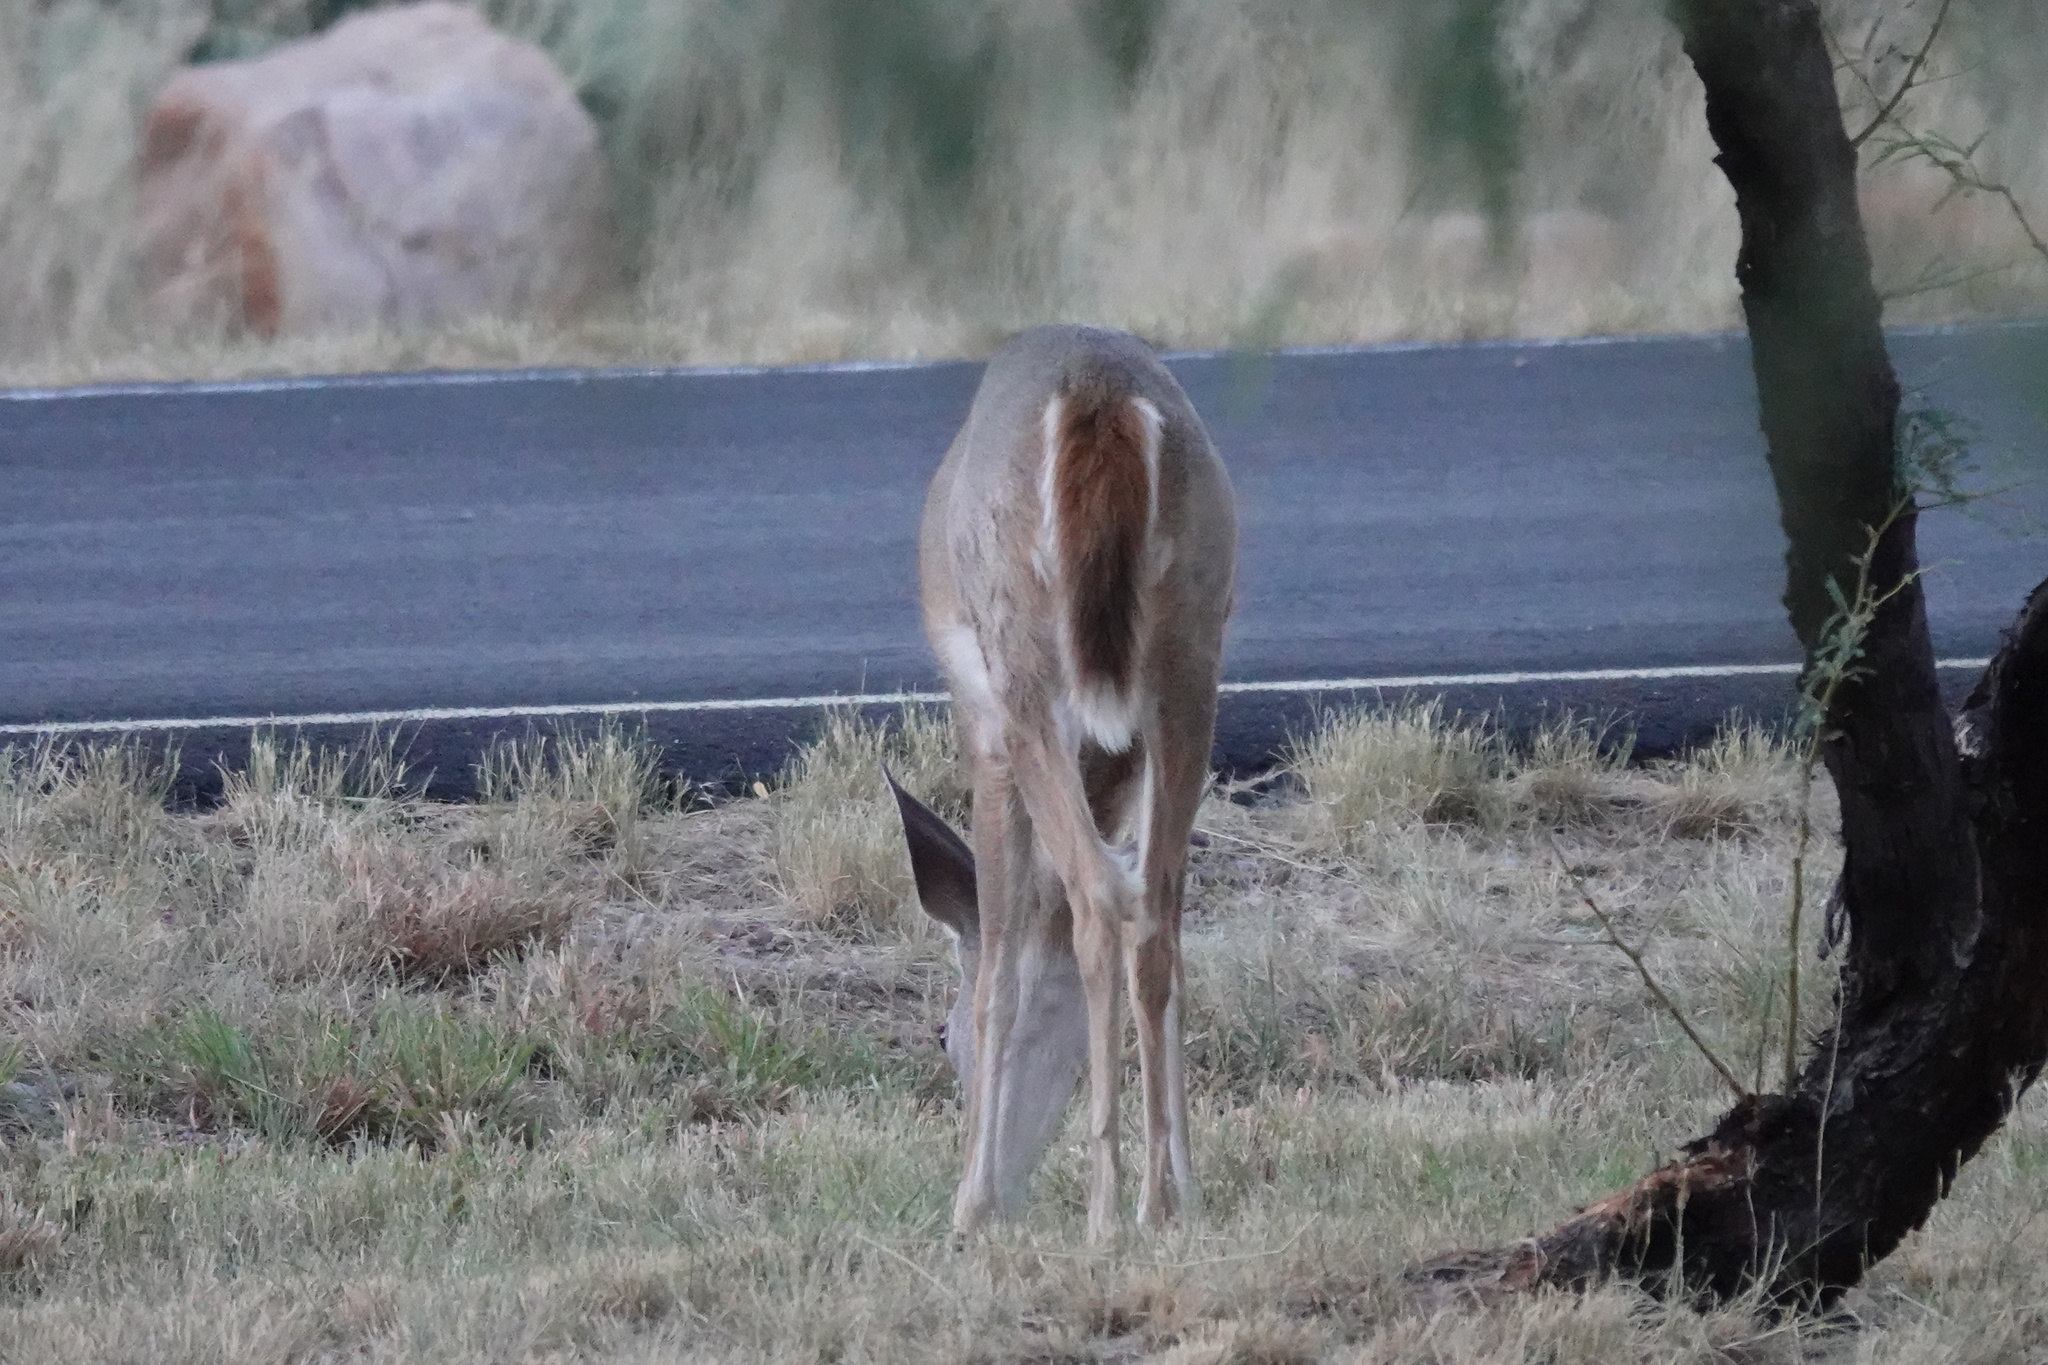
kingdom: Animalia
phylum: Chordata
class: Mammalia
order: Artiodactyla
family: Cervidae
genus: Odocoileus
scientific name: Odocoileus virginianus
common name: White-tailed deer
